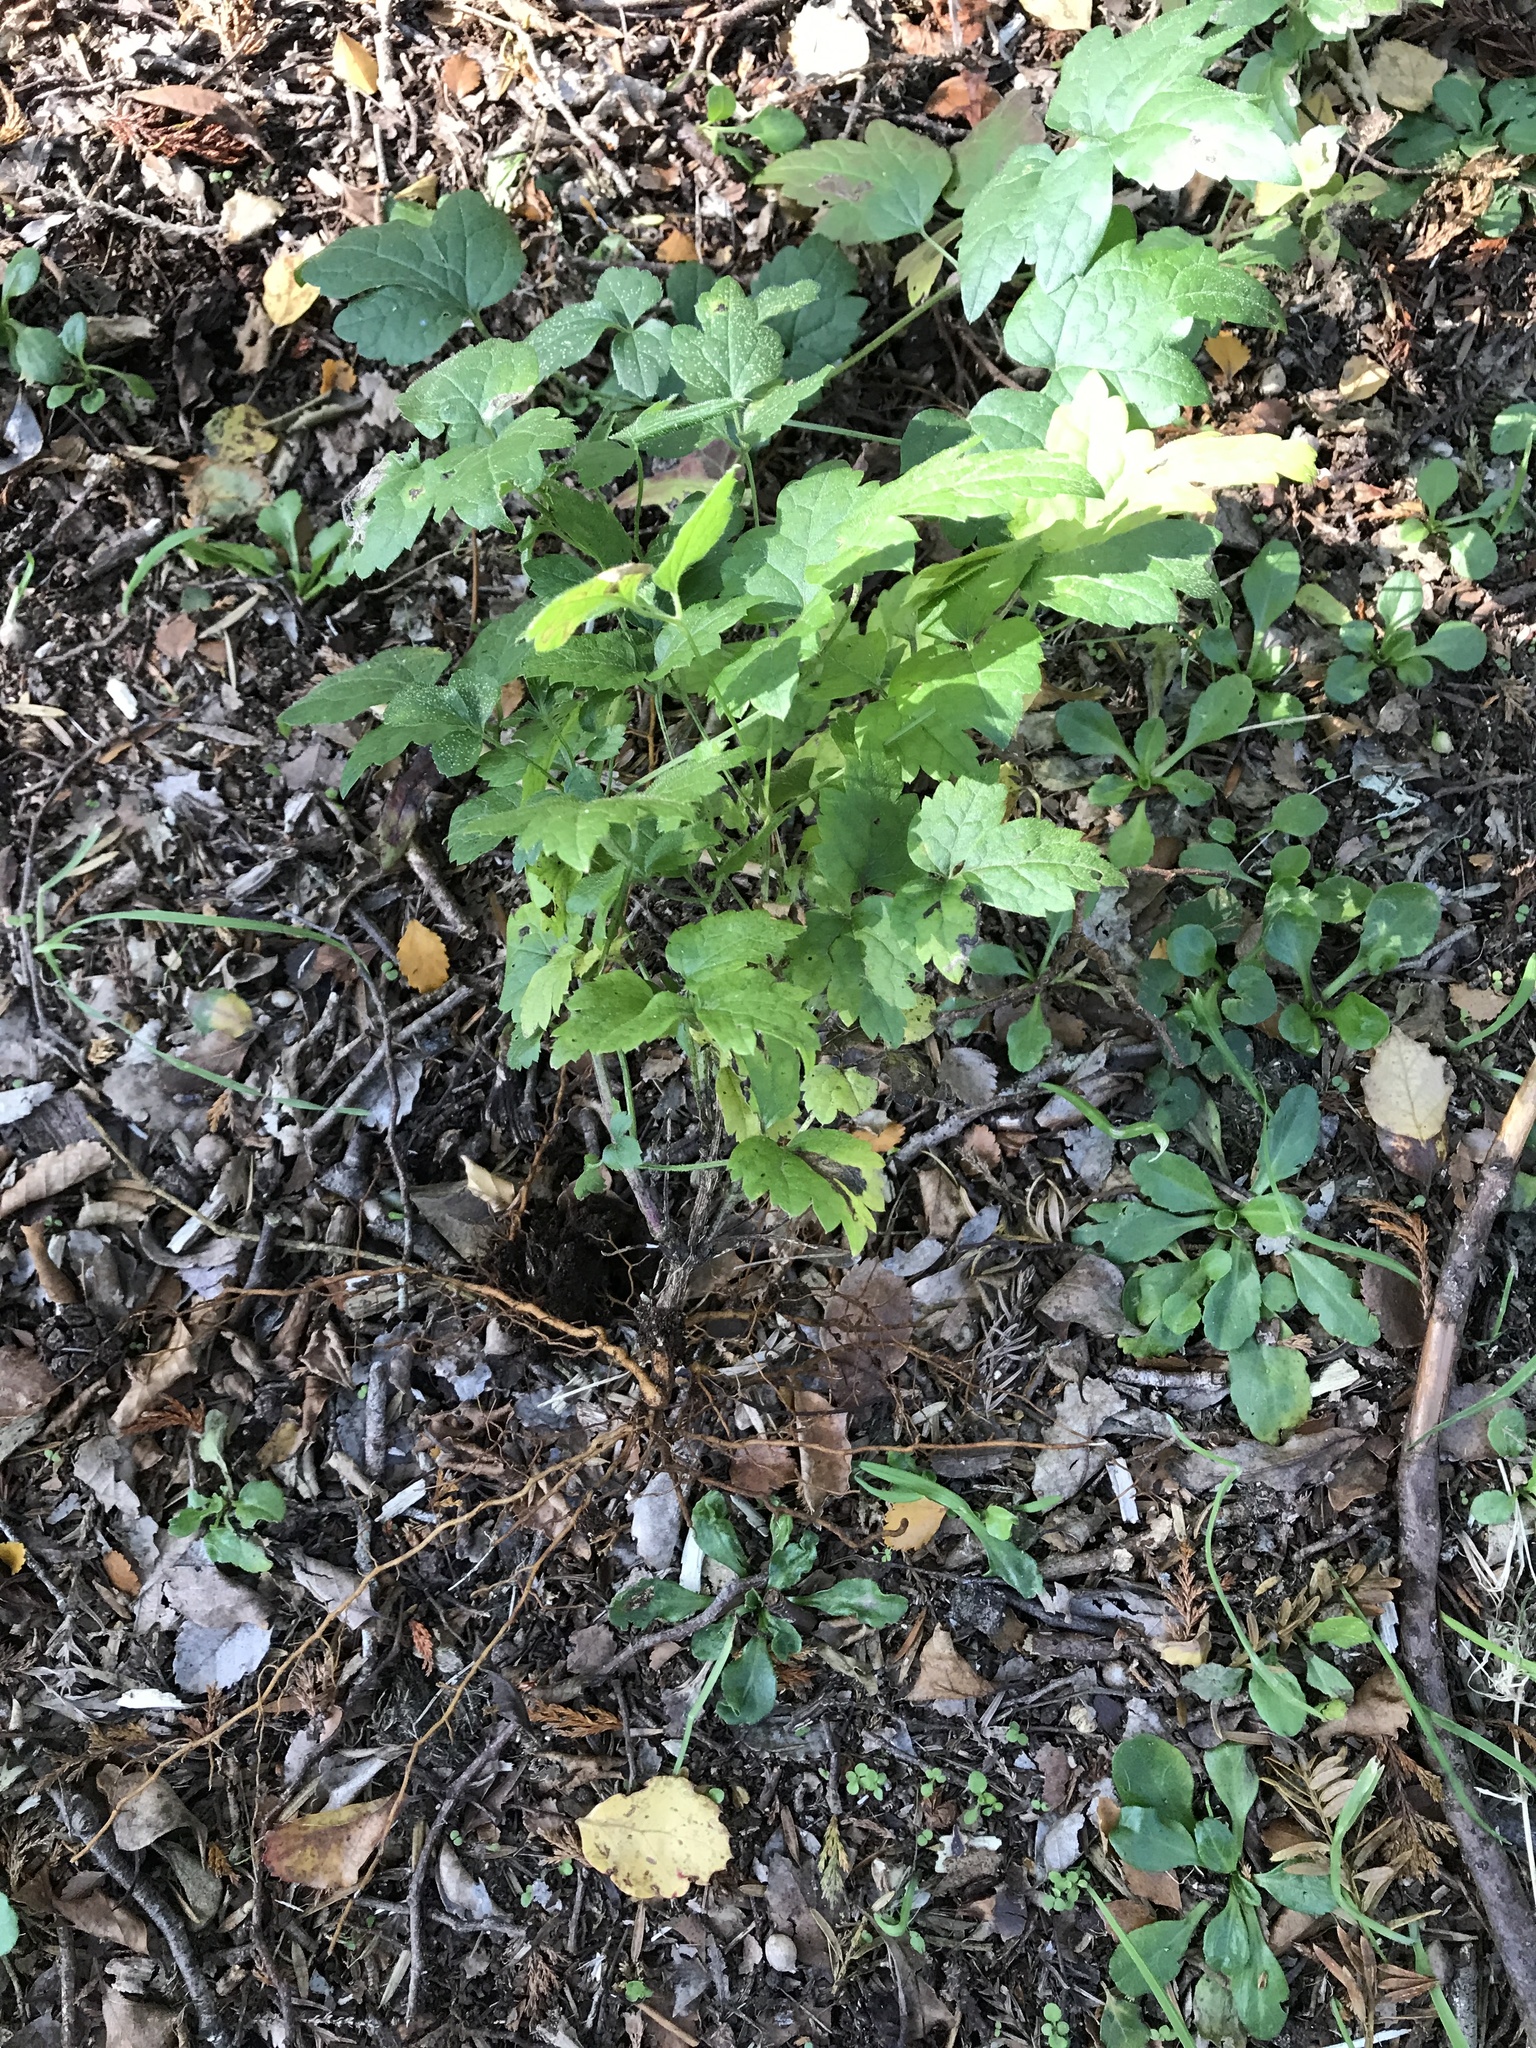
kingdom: Plantae
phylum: Tracheophyta
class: Magnoliopsida
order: Ranunculales
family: Ranunculaceae
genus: Clematis
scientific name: Clematis vitalba
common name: Evergreen clematis
